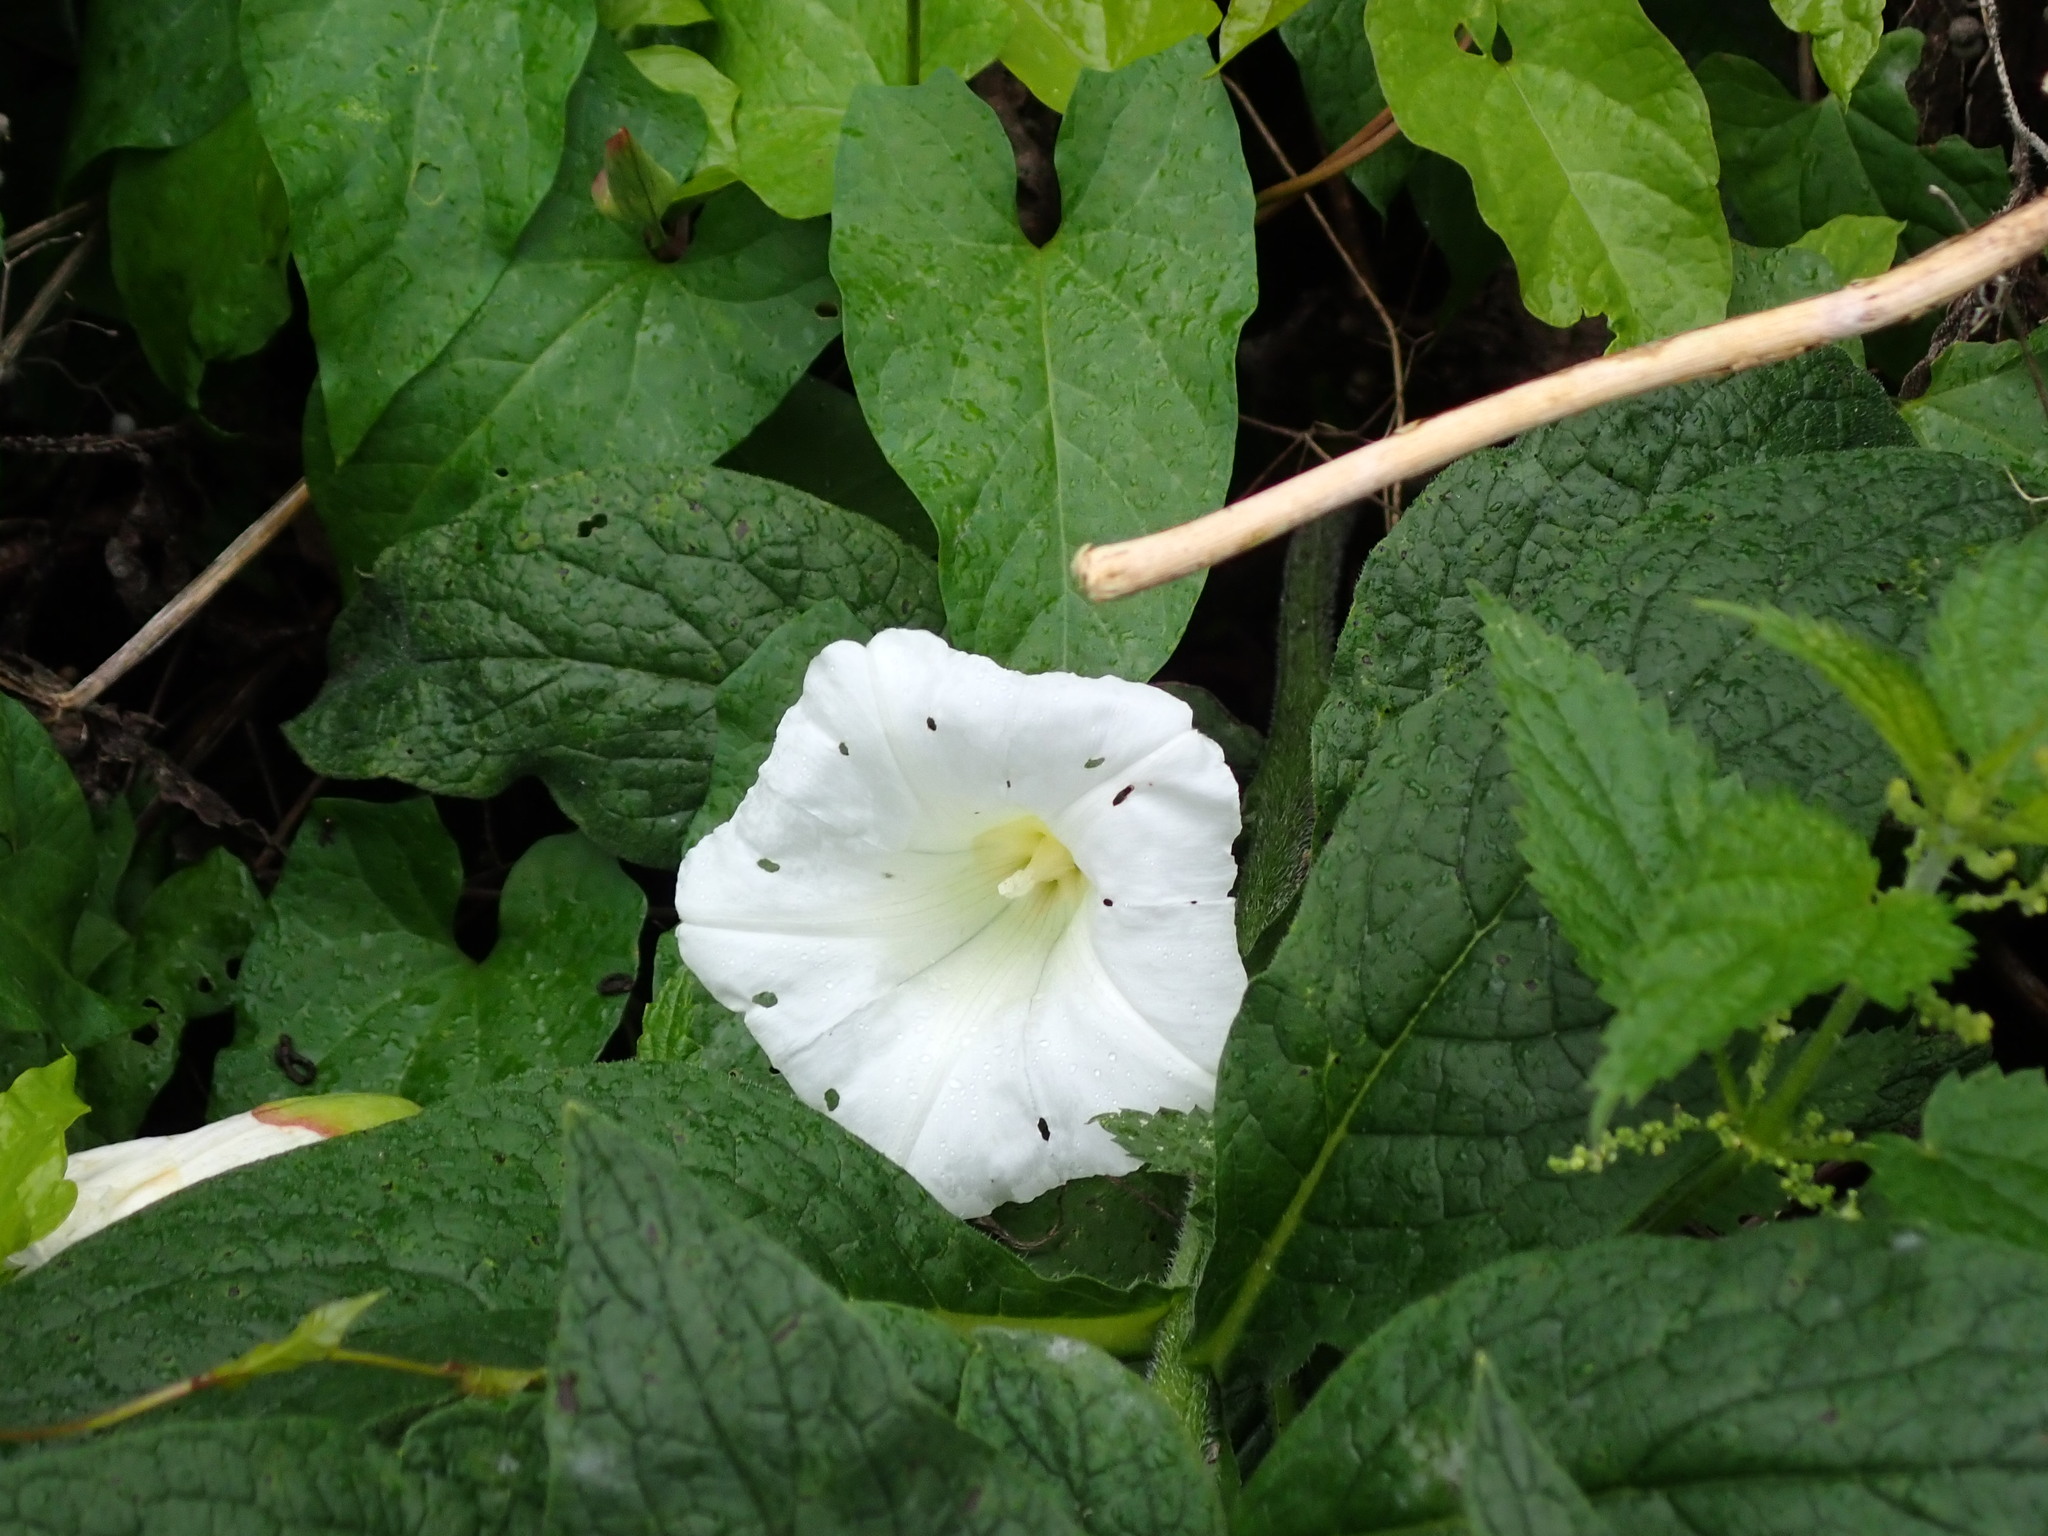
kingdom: Plantae
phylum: Tracheophyta
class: Magnoliopsida
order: Solanales
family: Convolvulaceae
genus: Calystegia
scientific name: Calystegia silvatica
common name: Large bindweed
